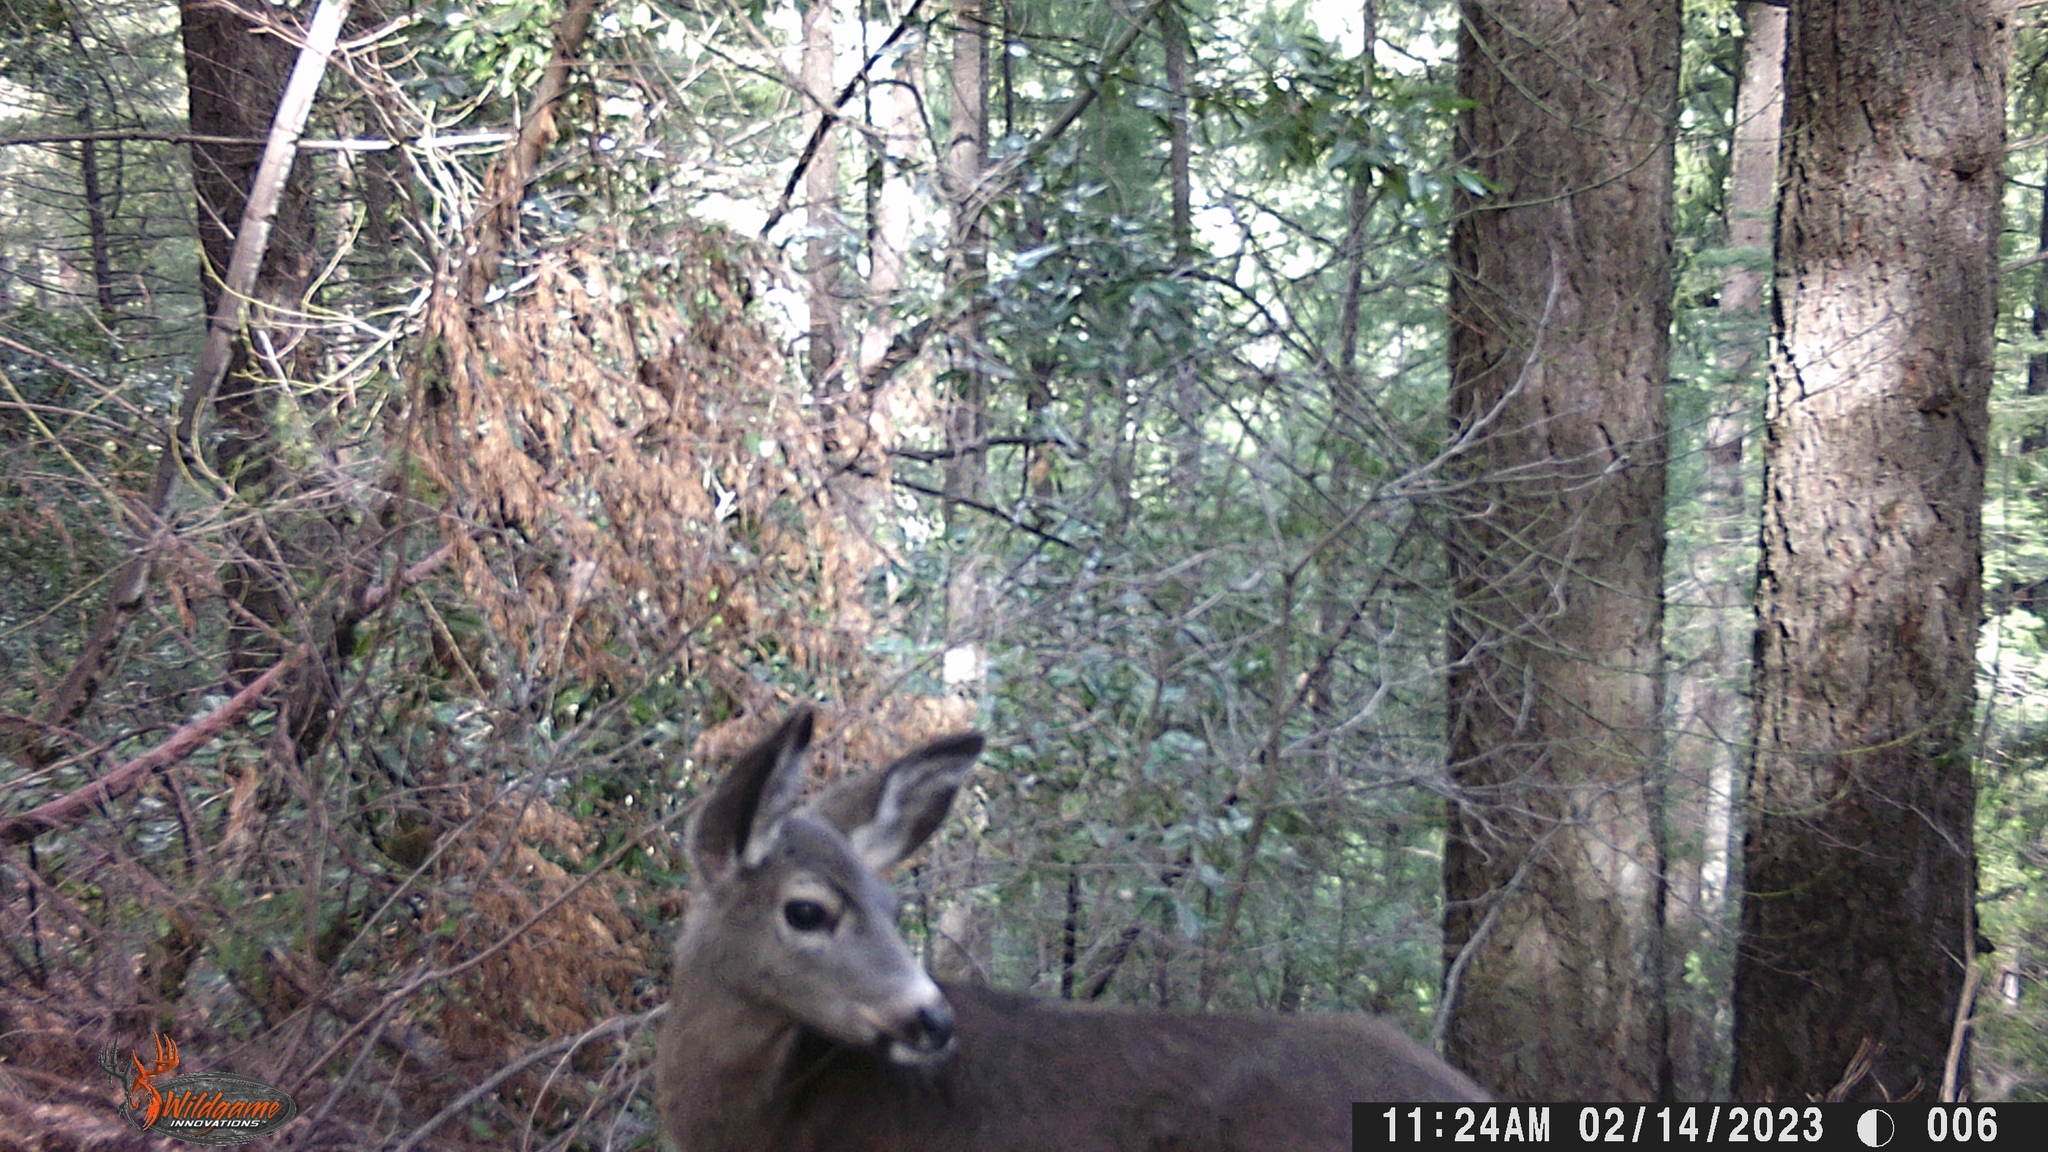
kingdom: Animalia
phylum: Chordata
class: Mammalia
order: Artiodactyla
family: Cervidae
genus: Odocoileus
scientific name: Odocoileus hemionus
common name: Mule deer
